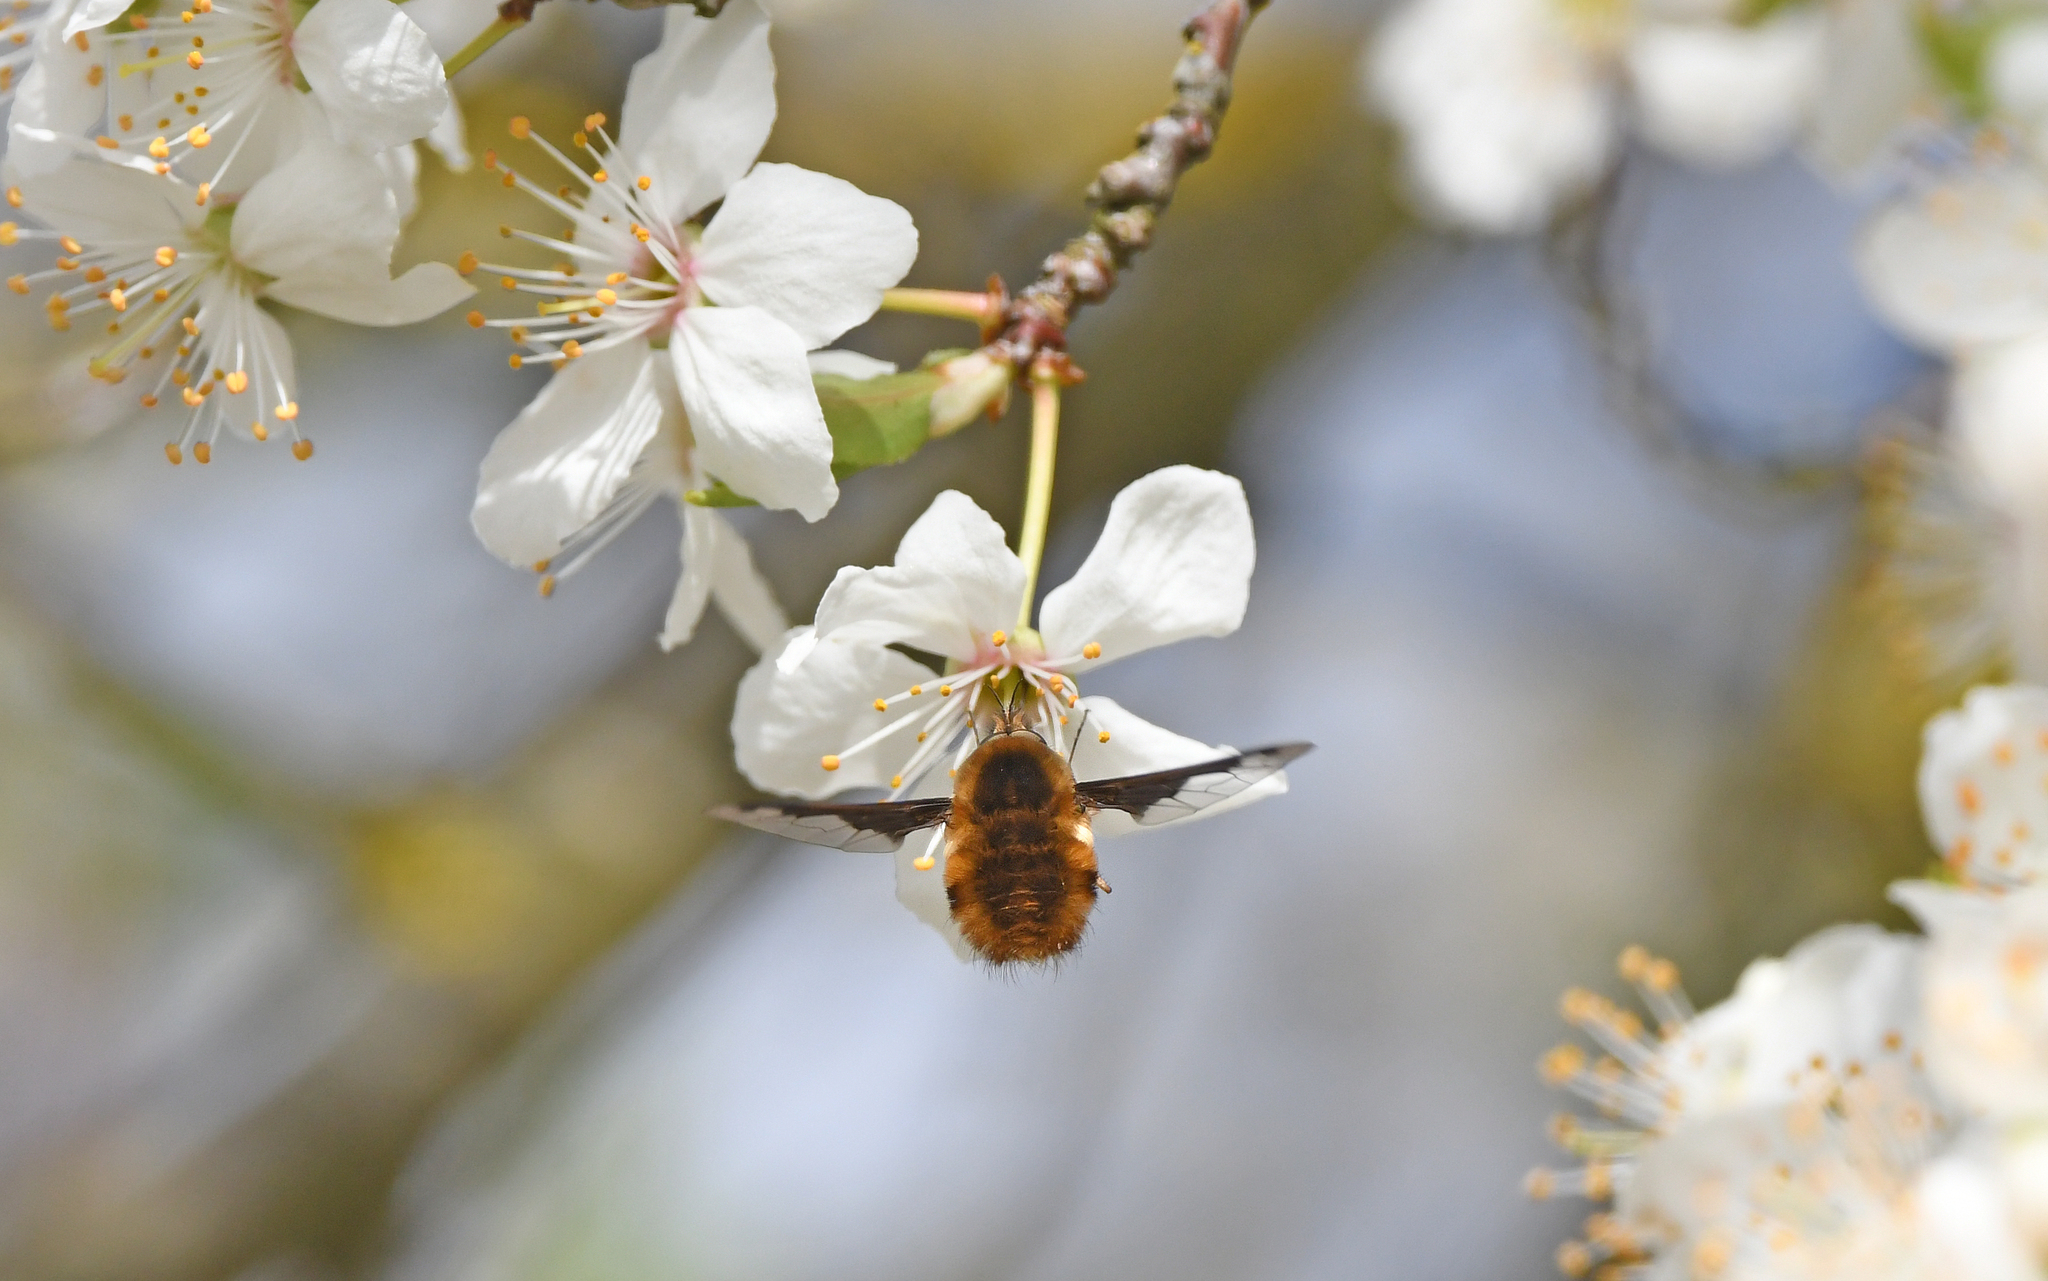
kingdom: Animalia
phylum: Arthropoda
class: Insecta
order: Diptera
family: Bombyliidae
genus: Bombylius
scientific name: Bombylius major
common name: Bee fly
